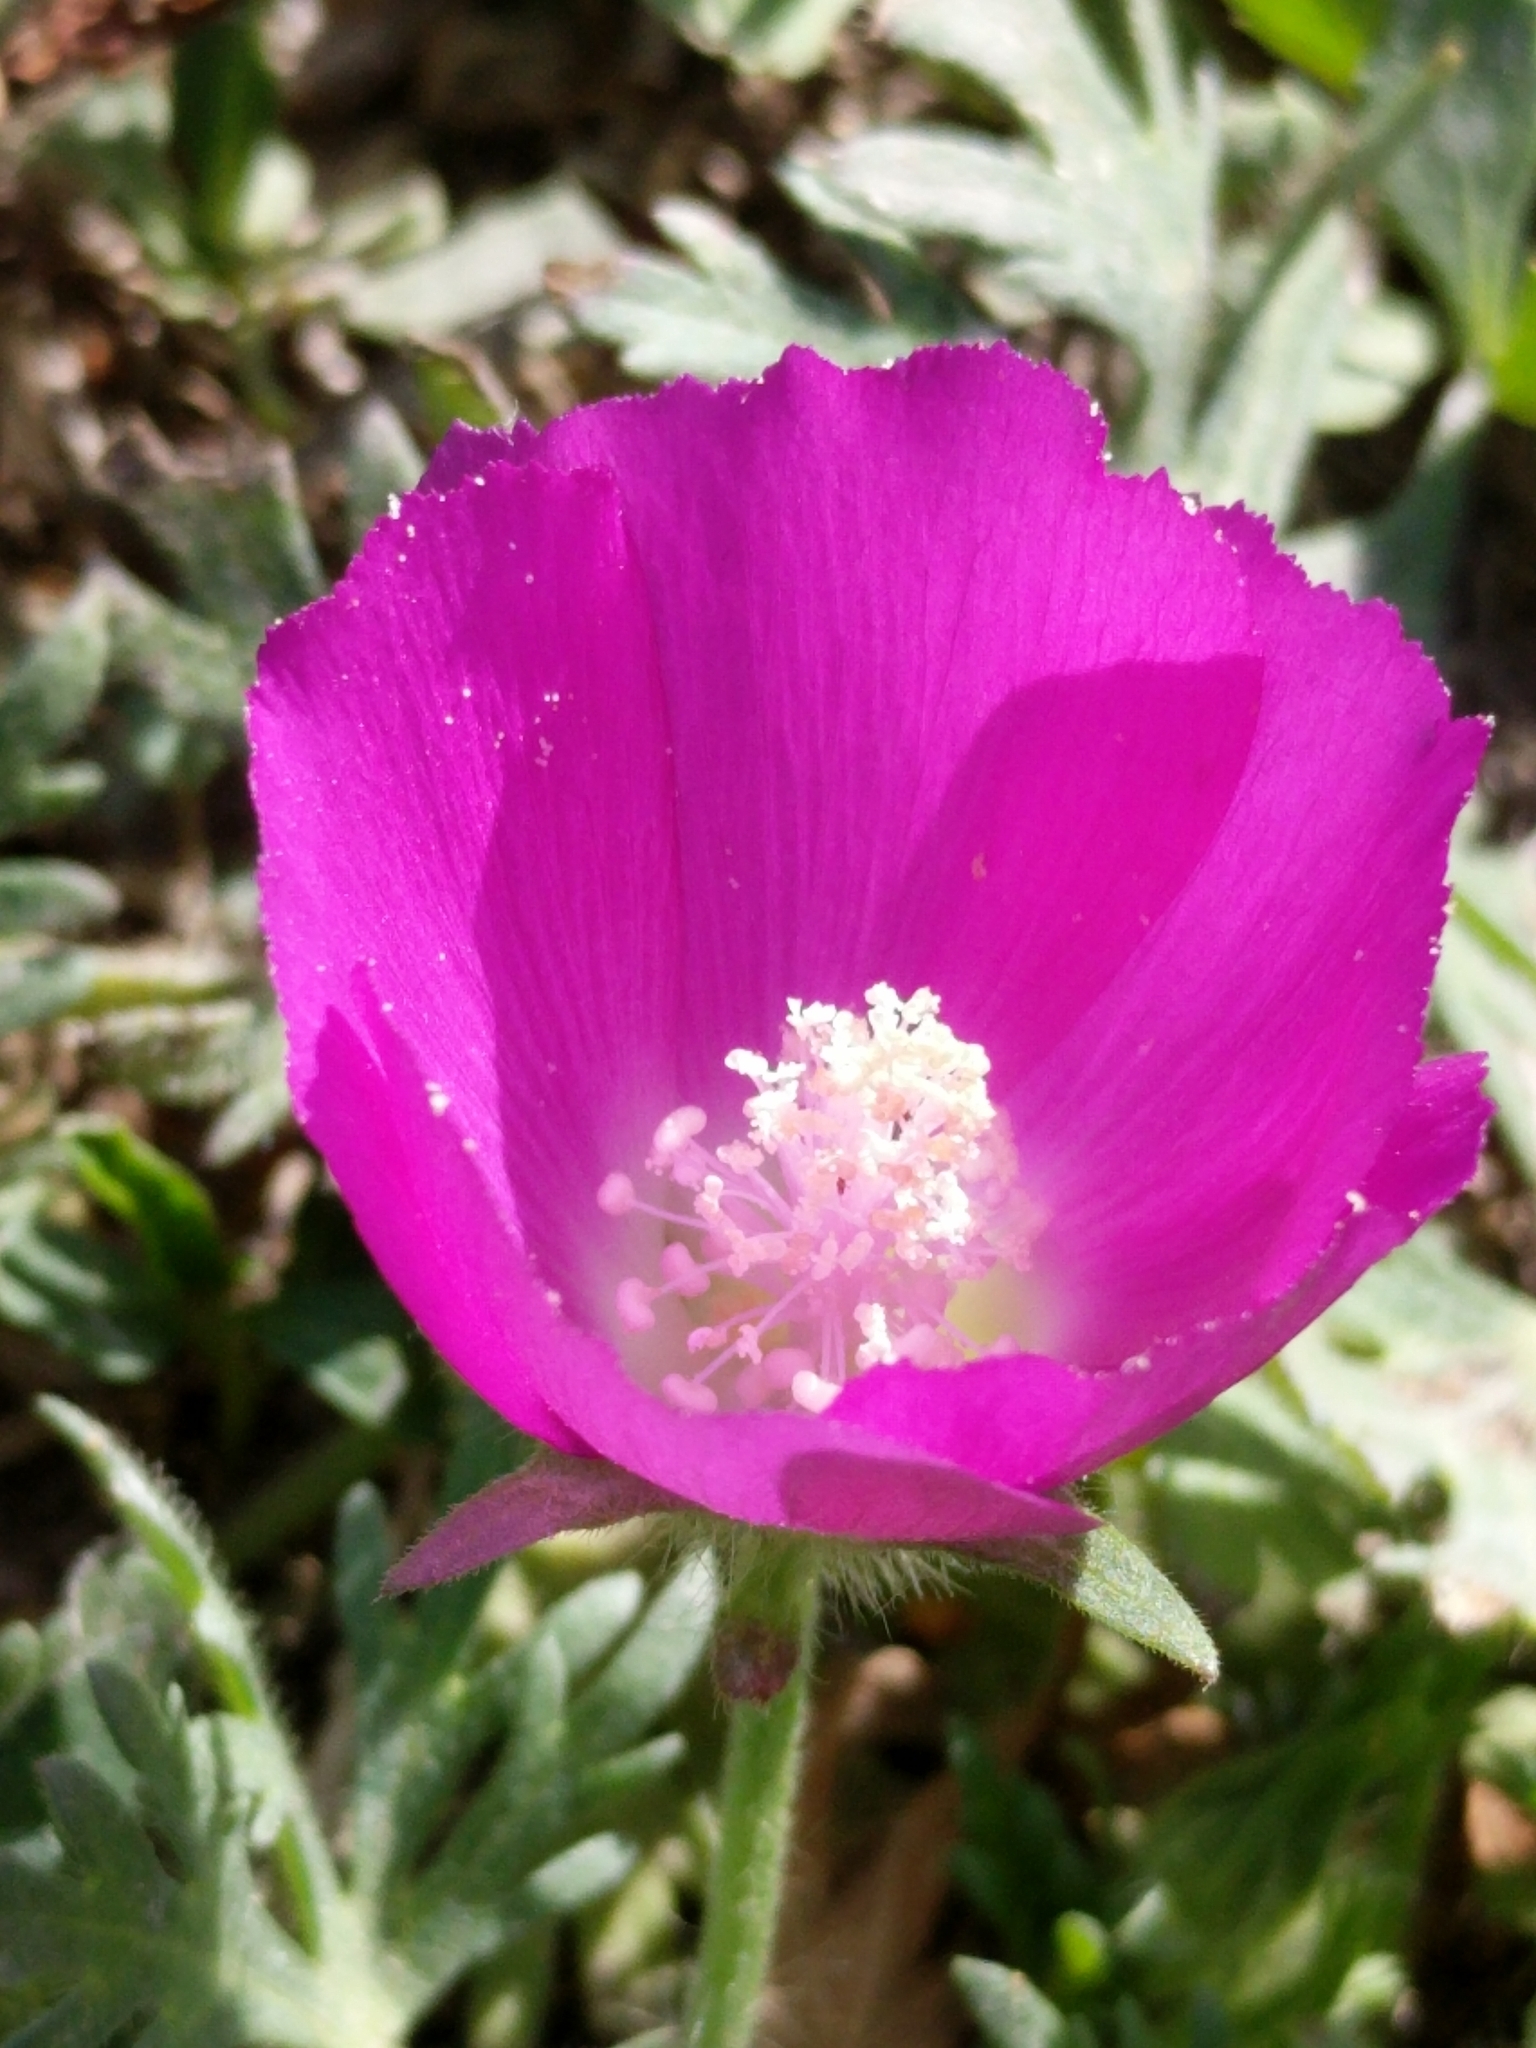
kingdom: Plantae
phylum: Tracheophyta
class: Magnoliopsida
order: Malvales
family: Malvaceae
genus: Callirhoe
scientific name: Callirhoe involucrata
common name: Purple poppy-mallow
